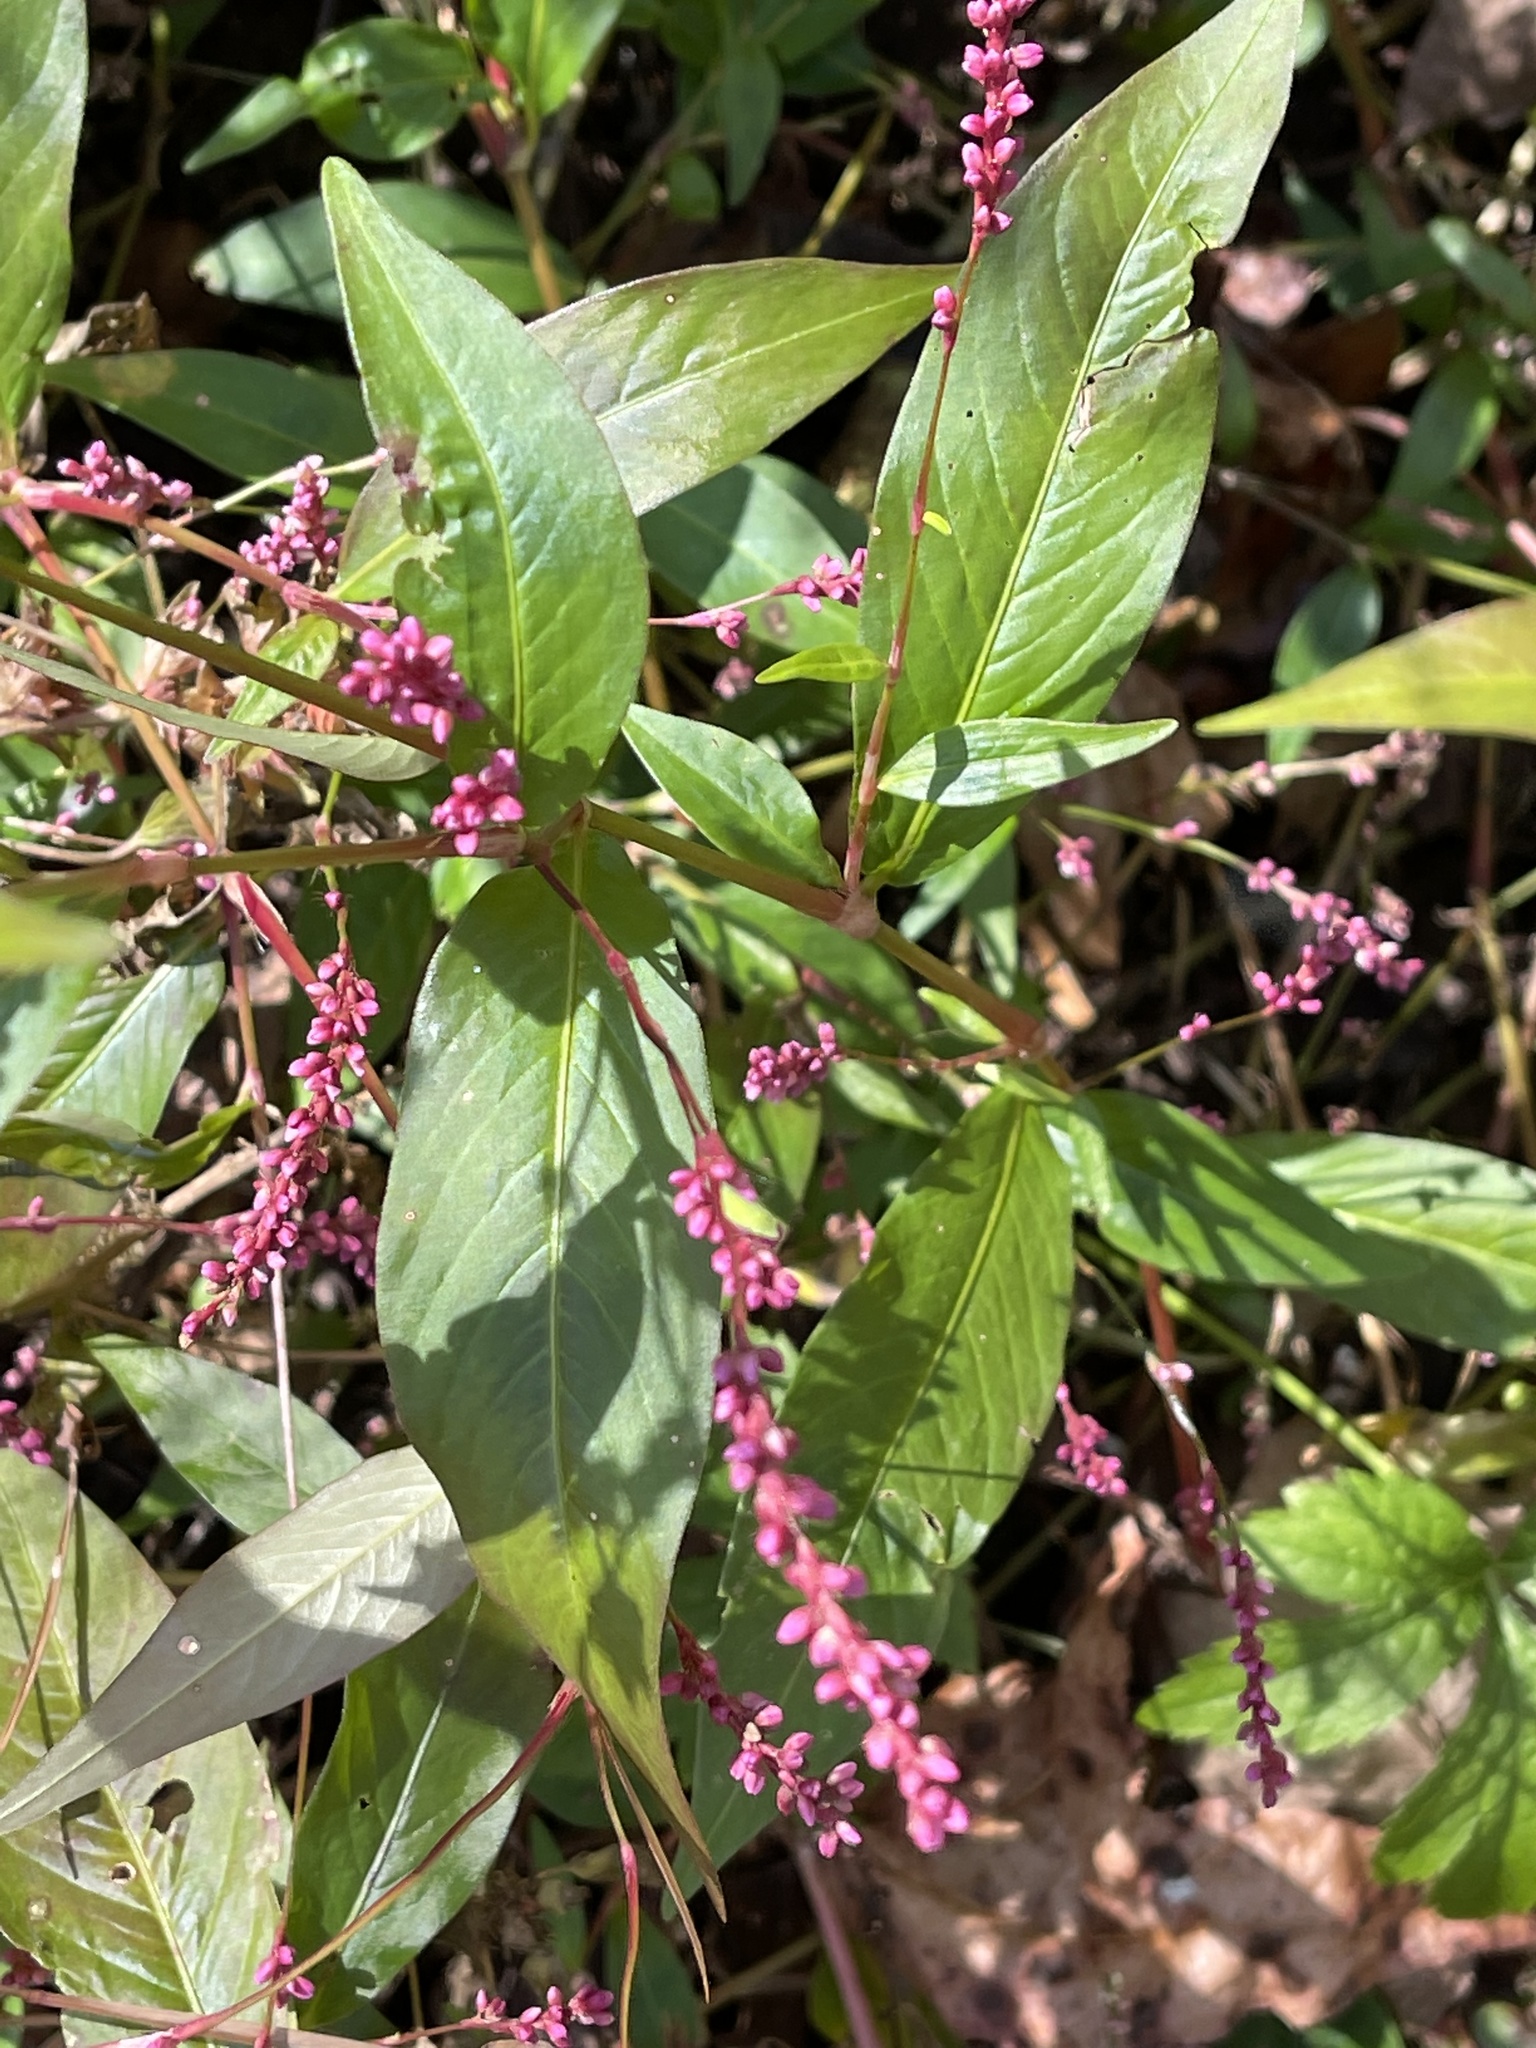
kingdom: Plantae
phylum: Tracheophyta
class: Magnoliopsida
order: Caryophyllales
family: Polygonaceae
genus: Persicaria
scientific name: Persicaria longiseta
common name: Bristly lady's-thumb
